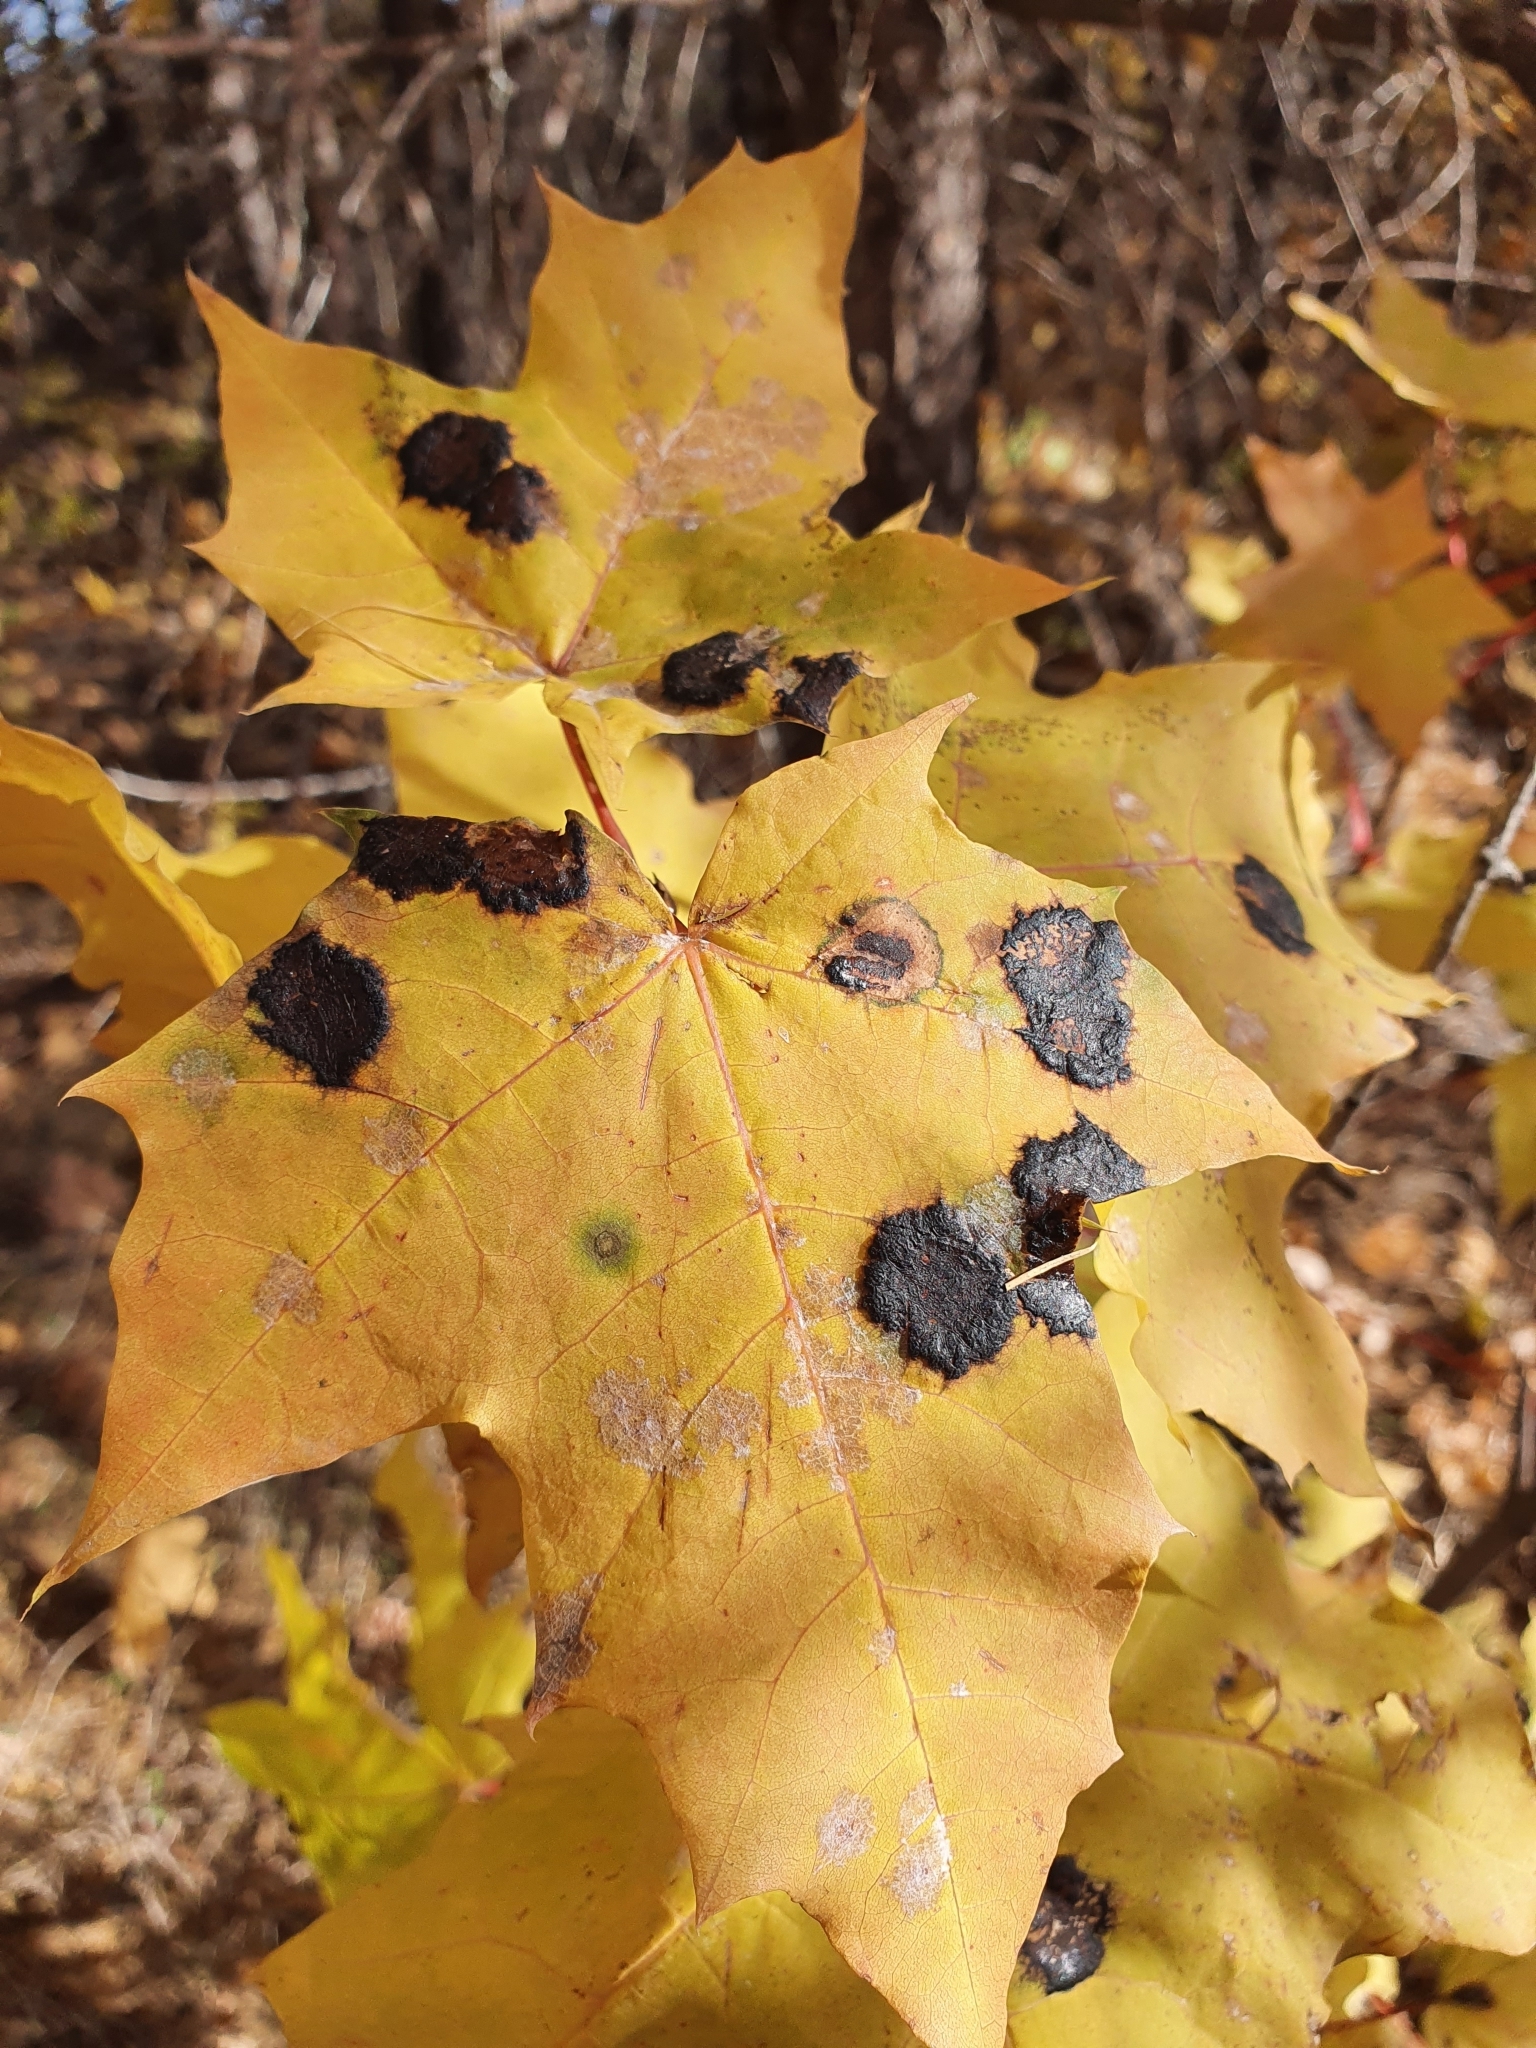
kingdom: Fungi
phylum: Ascomycota
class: Leotiomycetes
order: Rhytismatales
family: Rhytismataceae
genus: Rhytisma
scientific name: Rhytisma acerinum
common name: European tar spot
